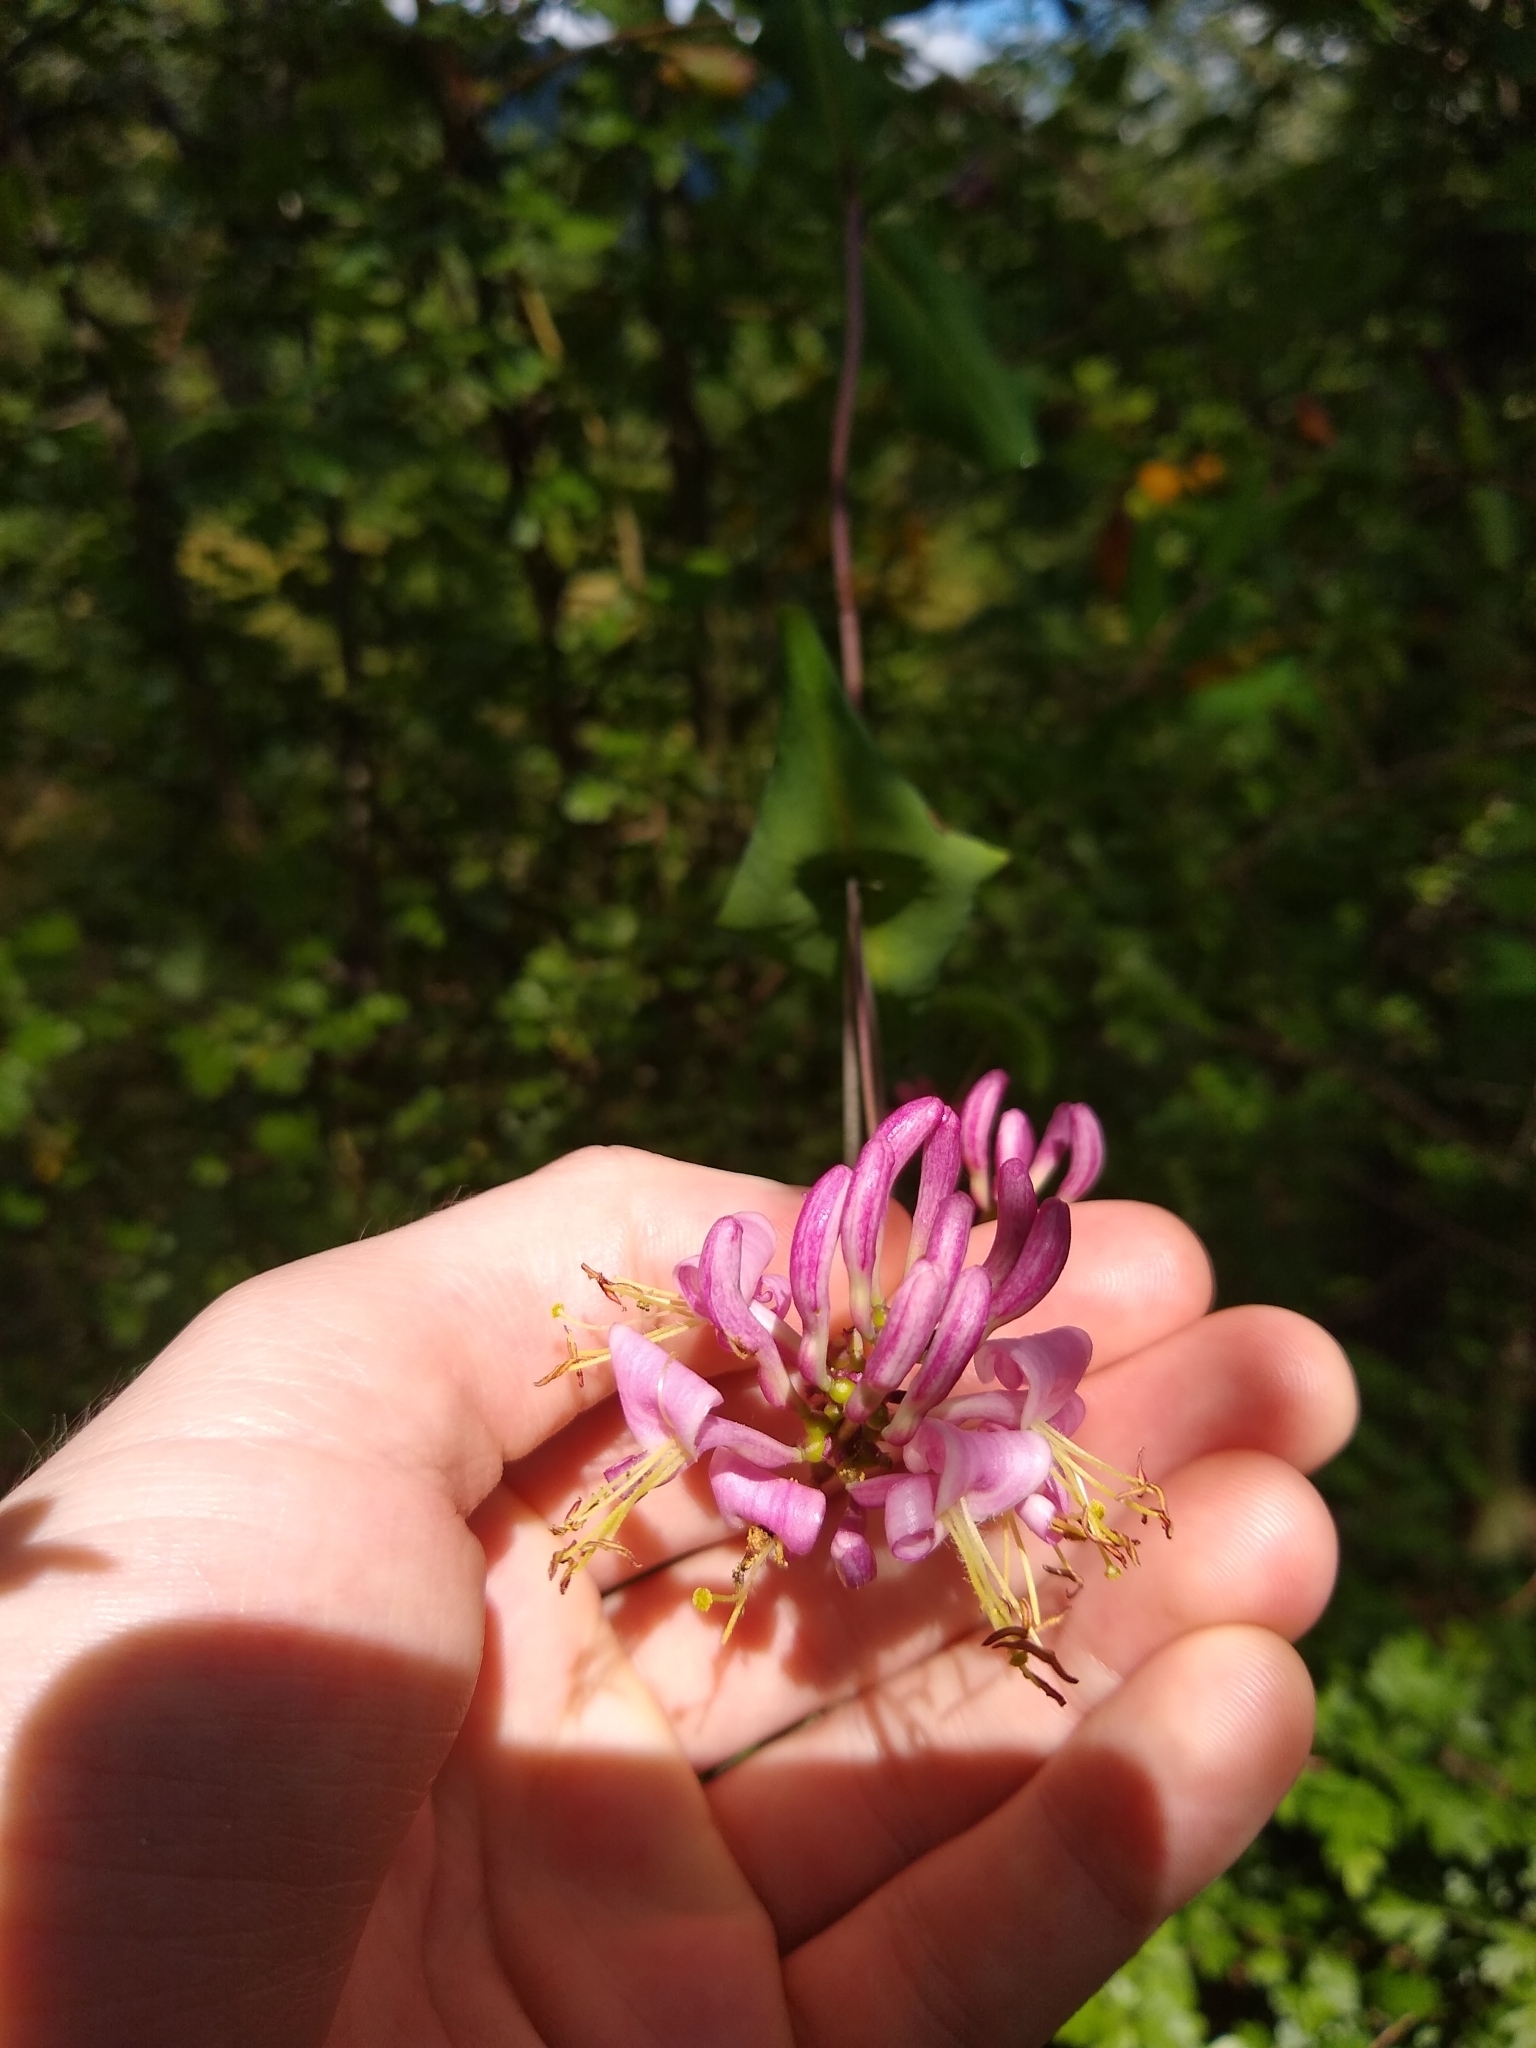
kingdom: Plantae
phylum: Tracheophyta
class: Magnoliopsida
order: Dipsacales
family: Caprifoliaceae
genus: Lonicera
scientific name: Lonicera hispidula
